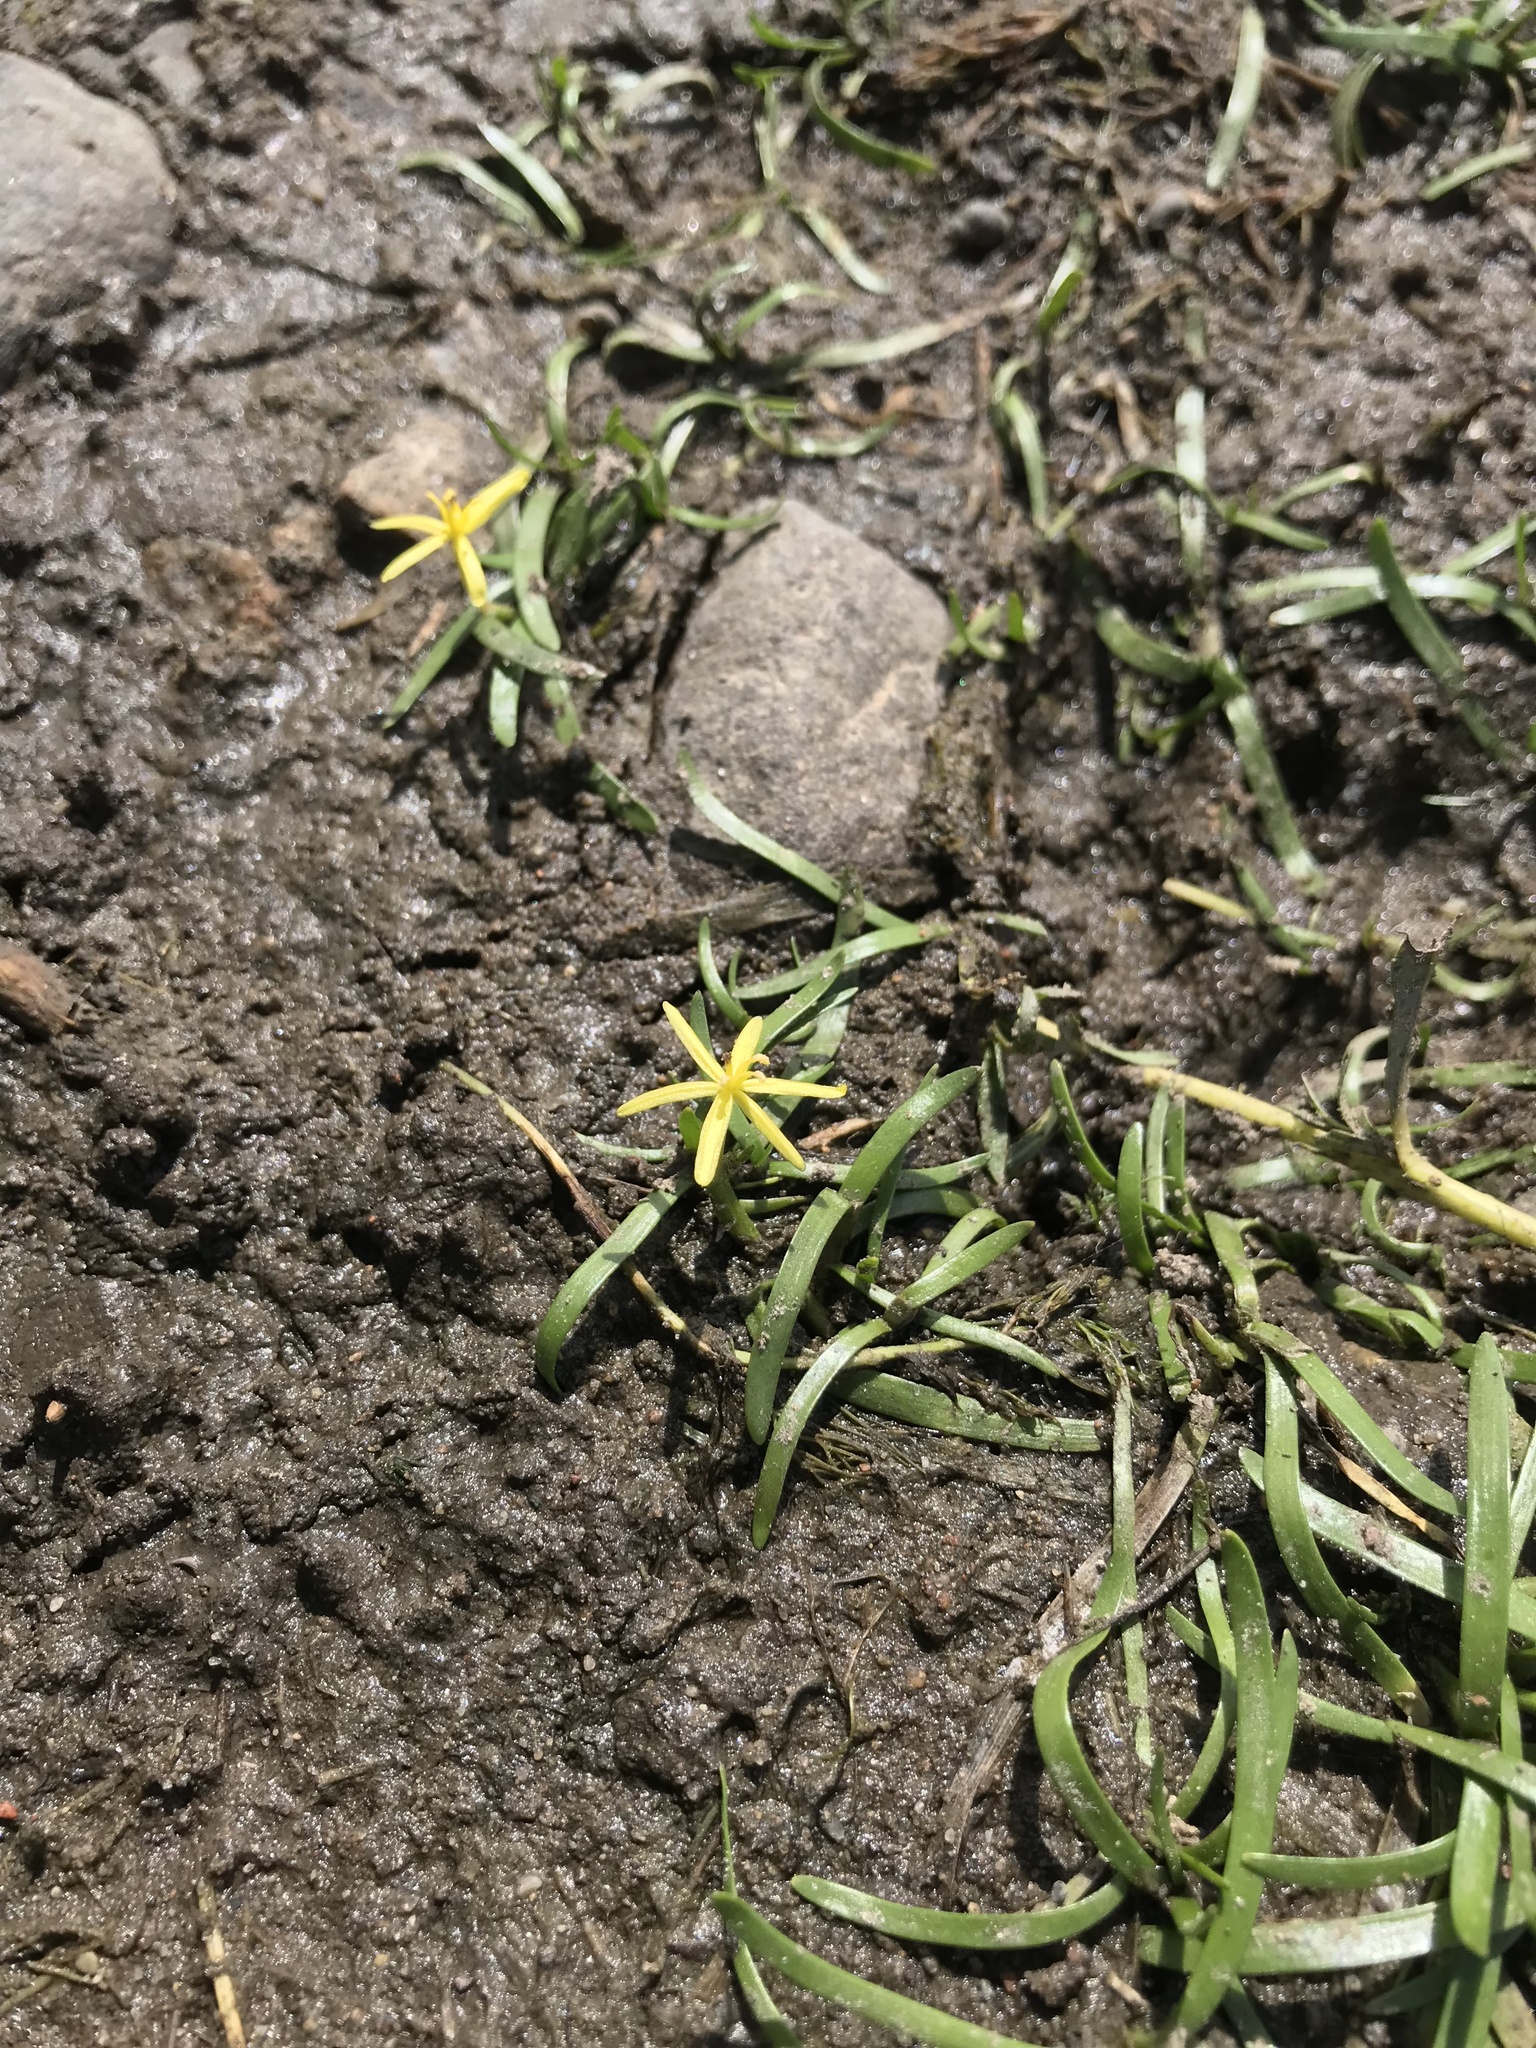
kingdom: Plantae
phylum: Tracheophyta
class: Liliopsida
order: Commelinales
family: Pontederiaceae
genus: Heteranthera
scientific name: Heteranthera dubia
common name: Grass-leaved mud plantain
